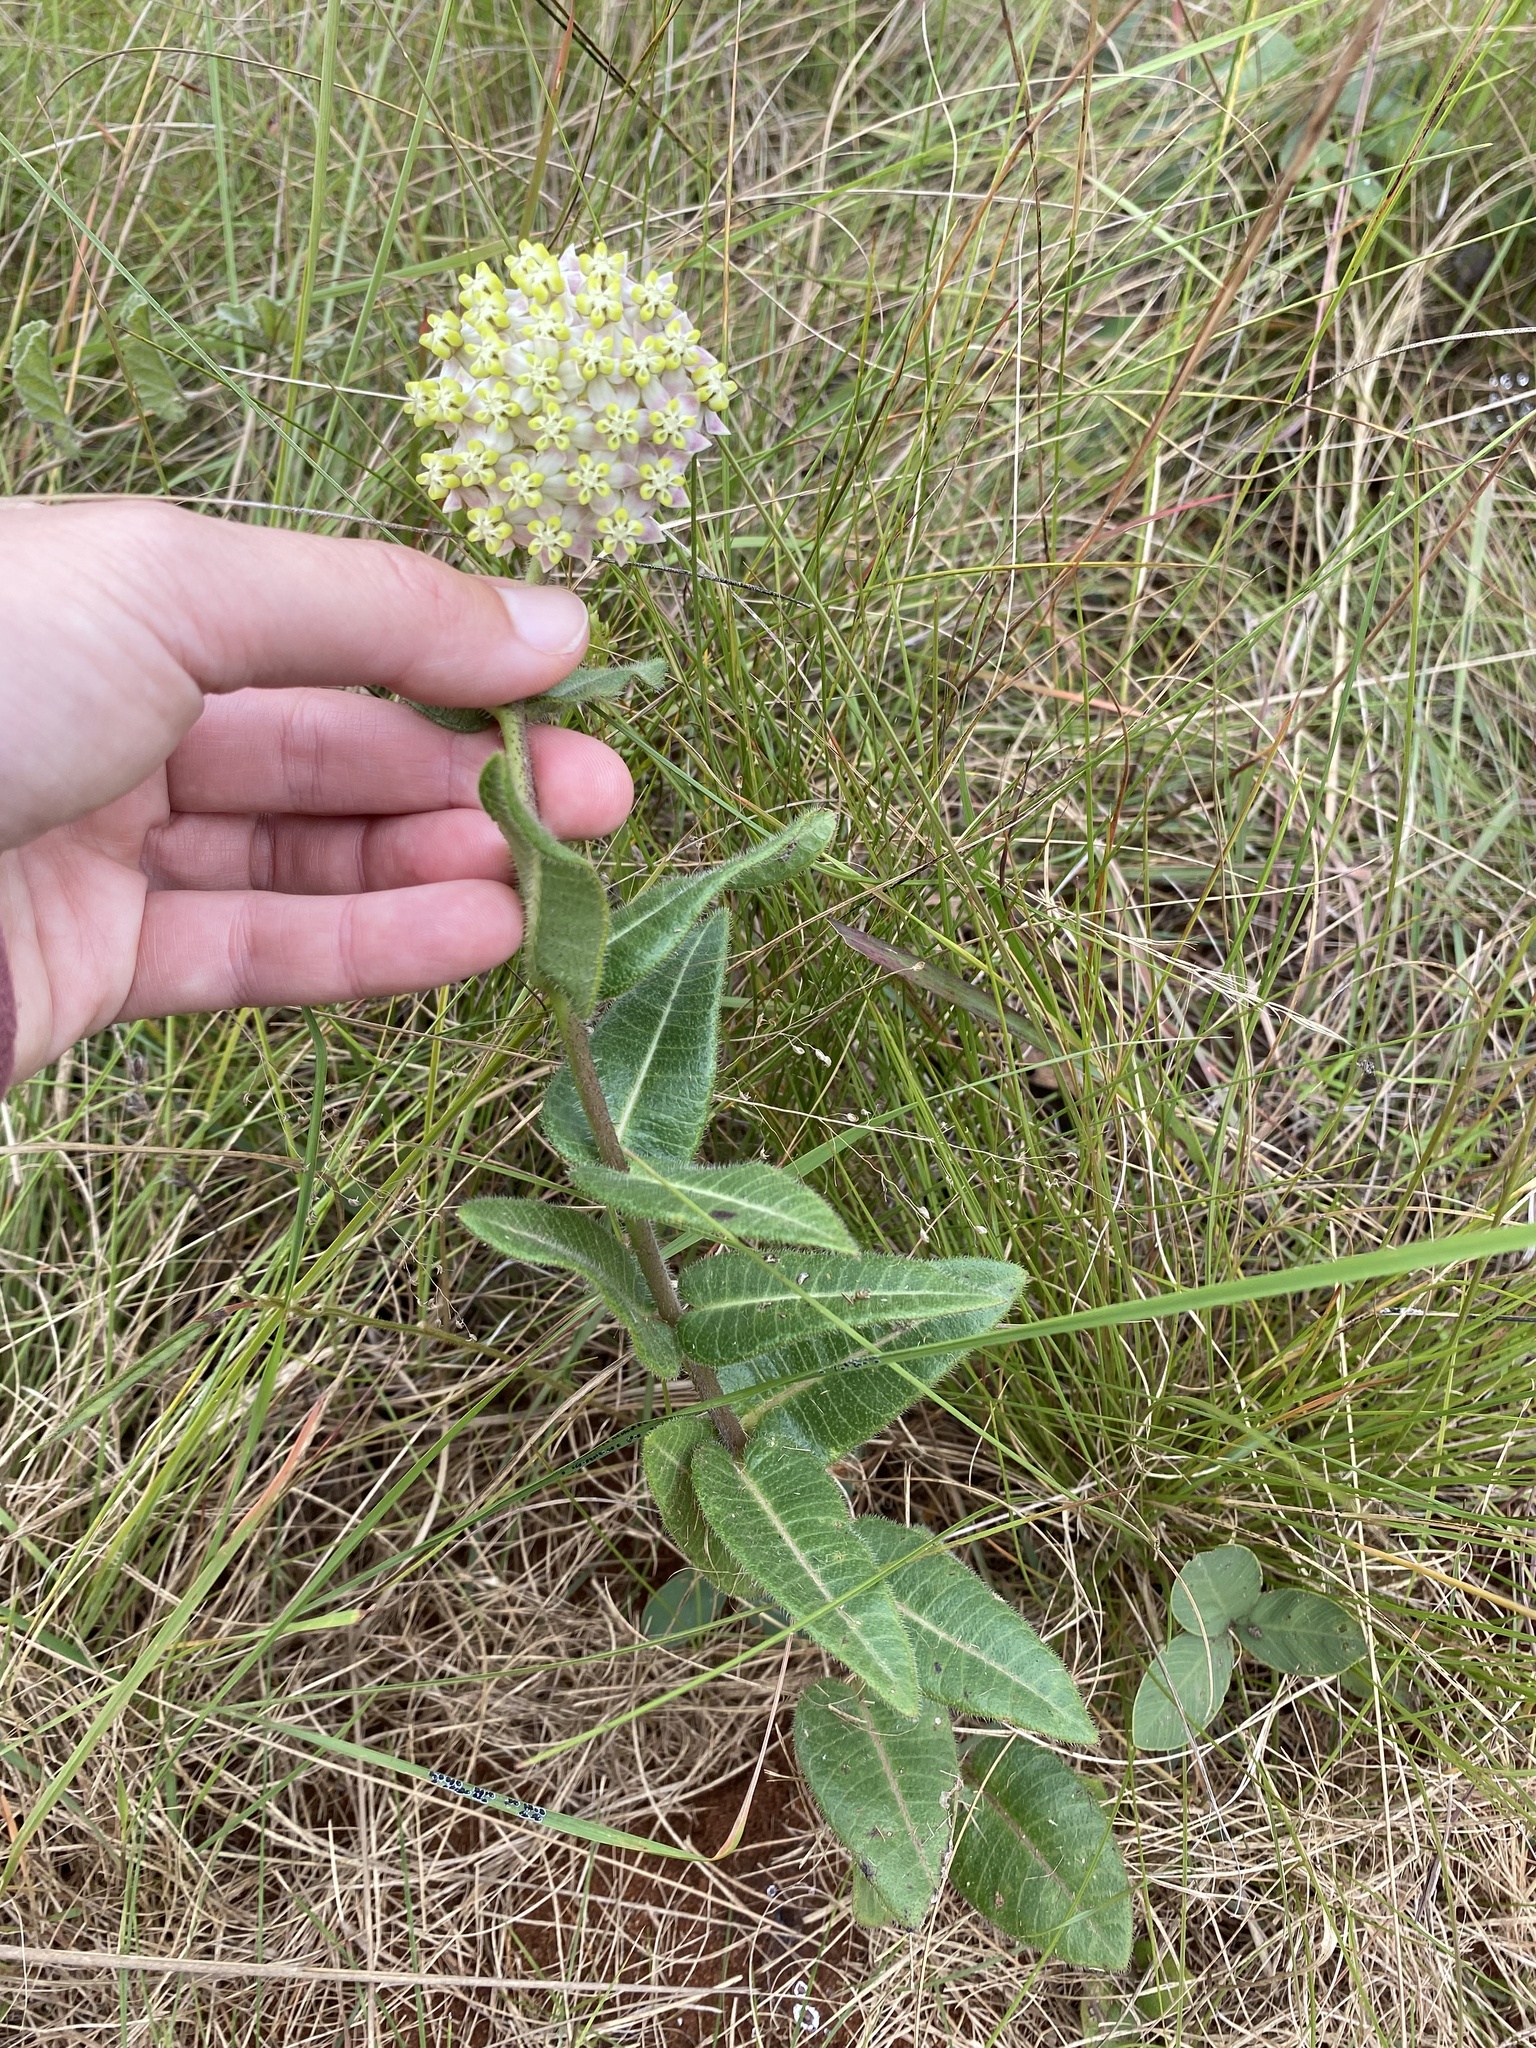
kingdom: Plantae
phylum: Tracheophyta
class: Magnoliopsida
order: Gentianales
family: Apocynaceae
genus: Asclepias
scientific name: Asclepias albens
